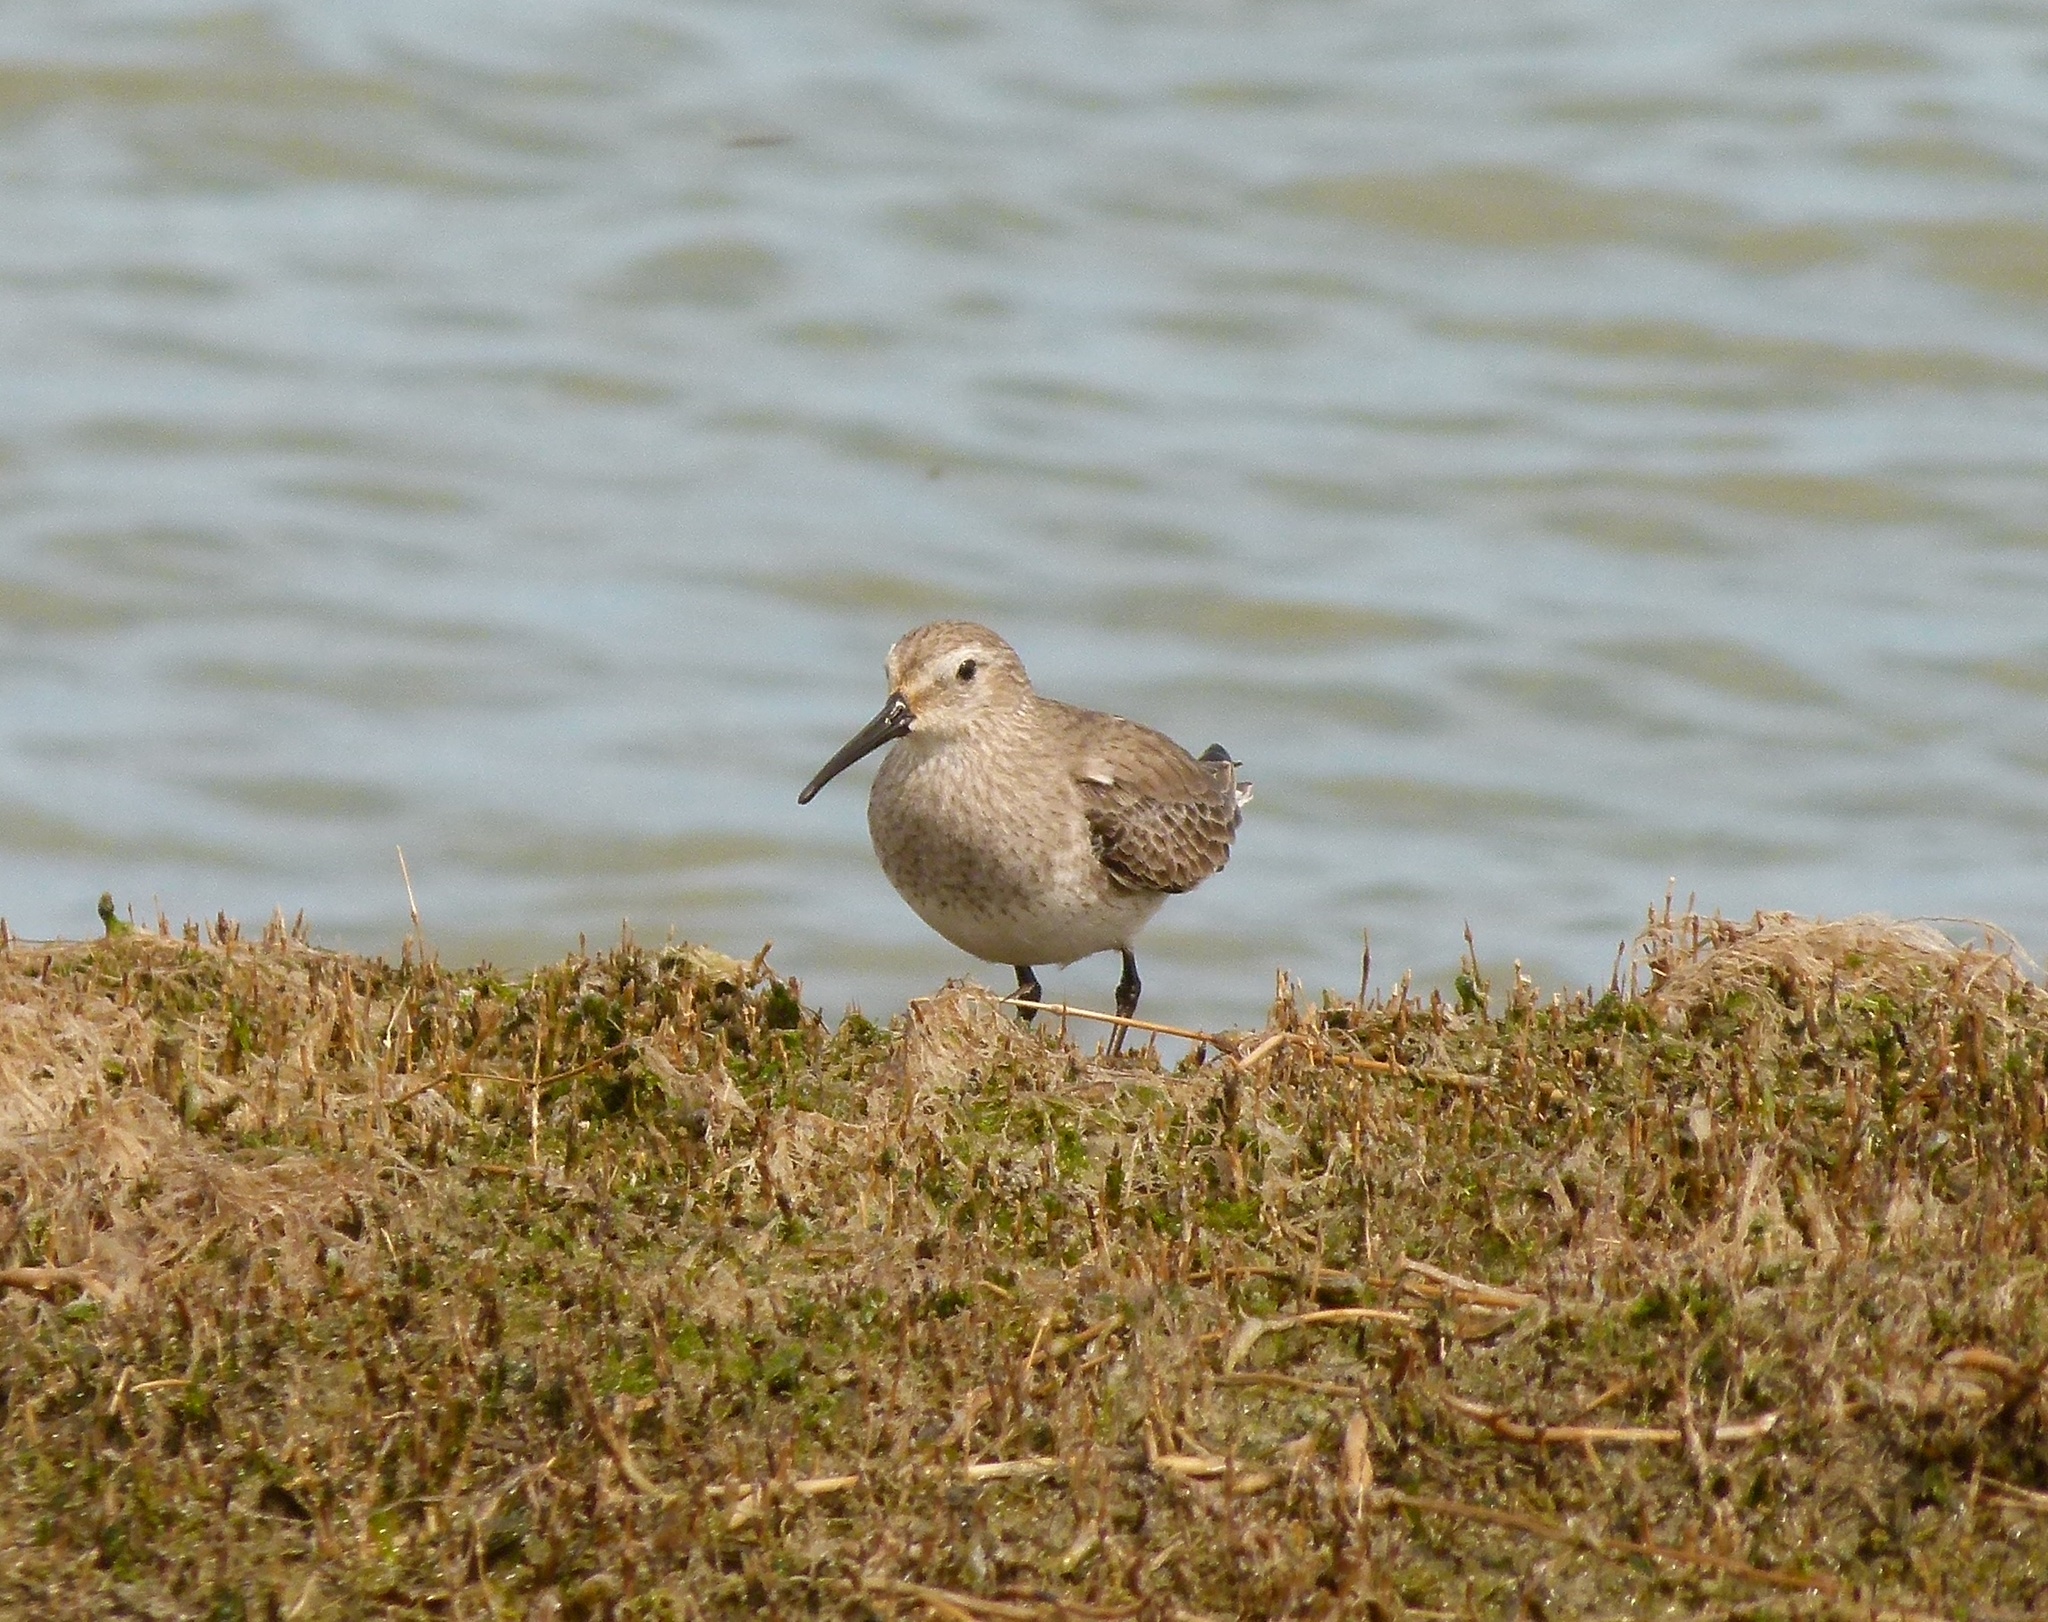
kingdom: Animalia
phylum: Chordata
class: Aves
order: Charadriiformes
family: Scolopacidae
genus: Calidris
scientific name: Calidris alpina
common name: Dunlin
